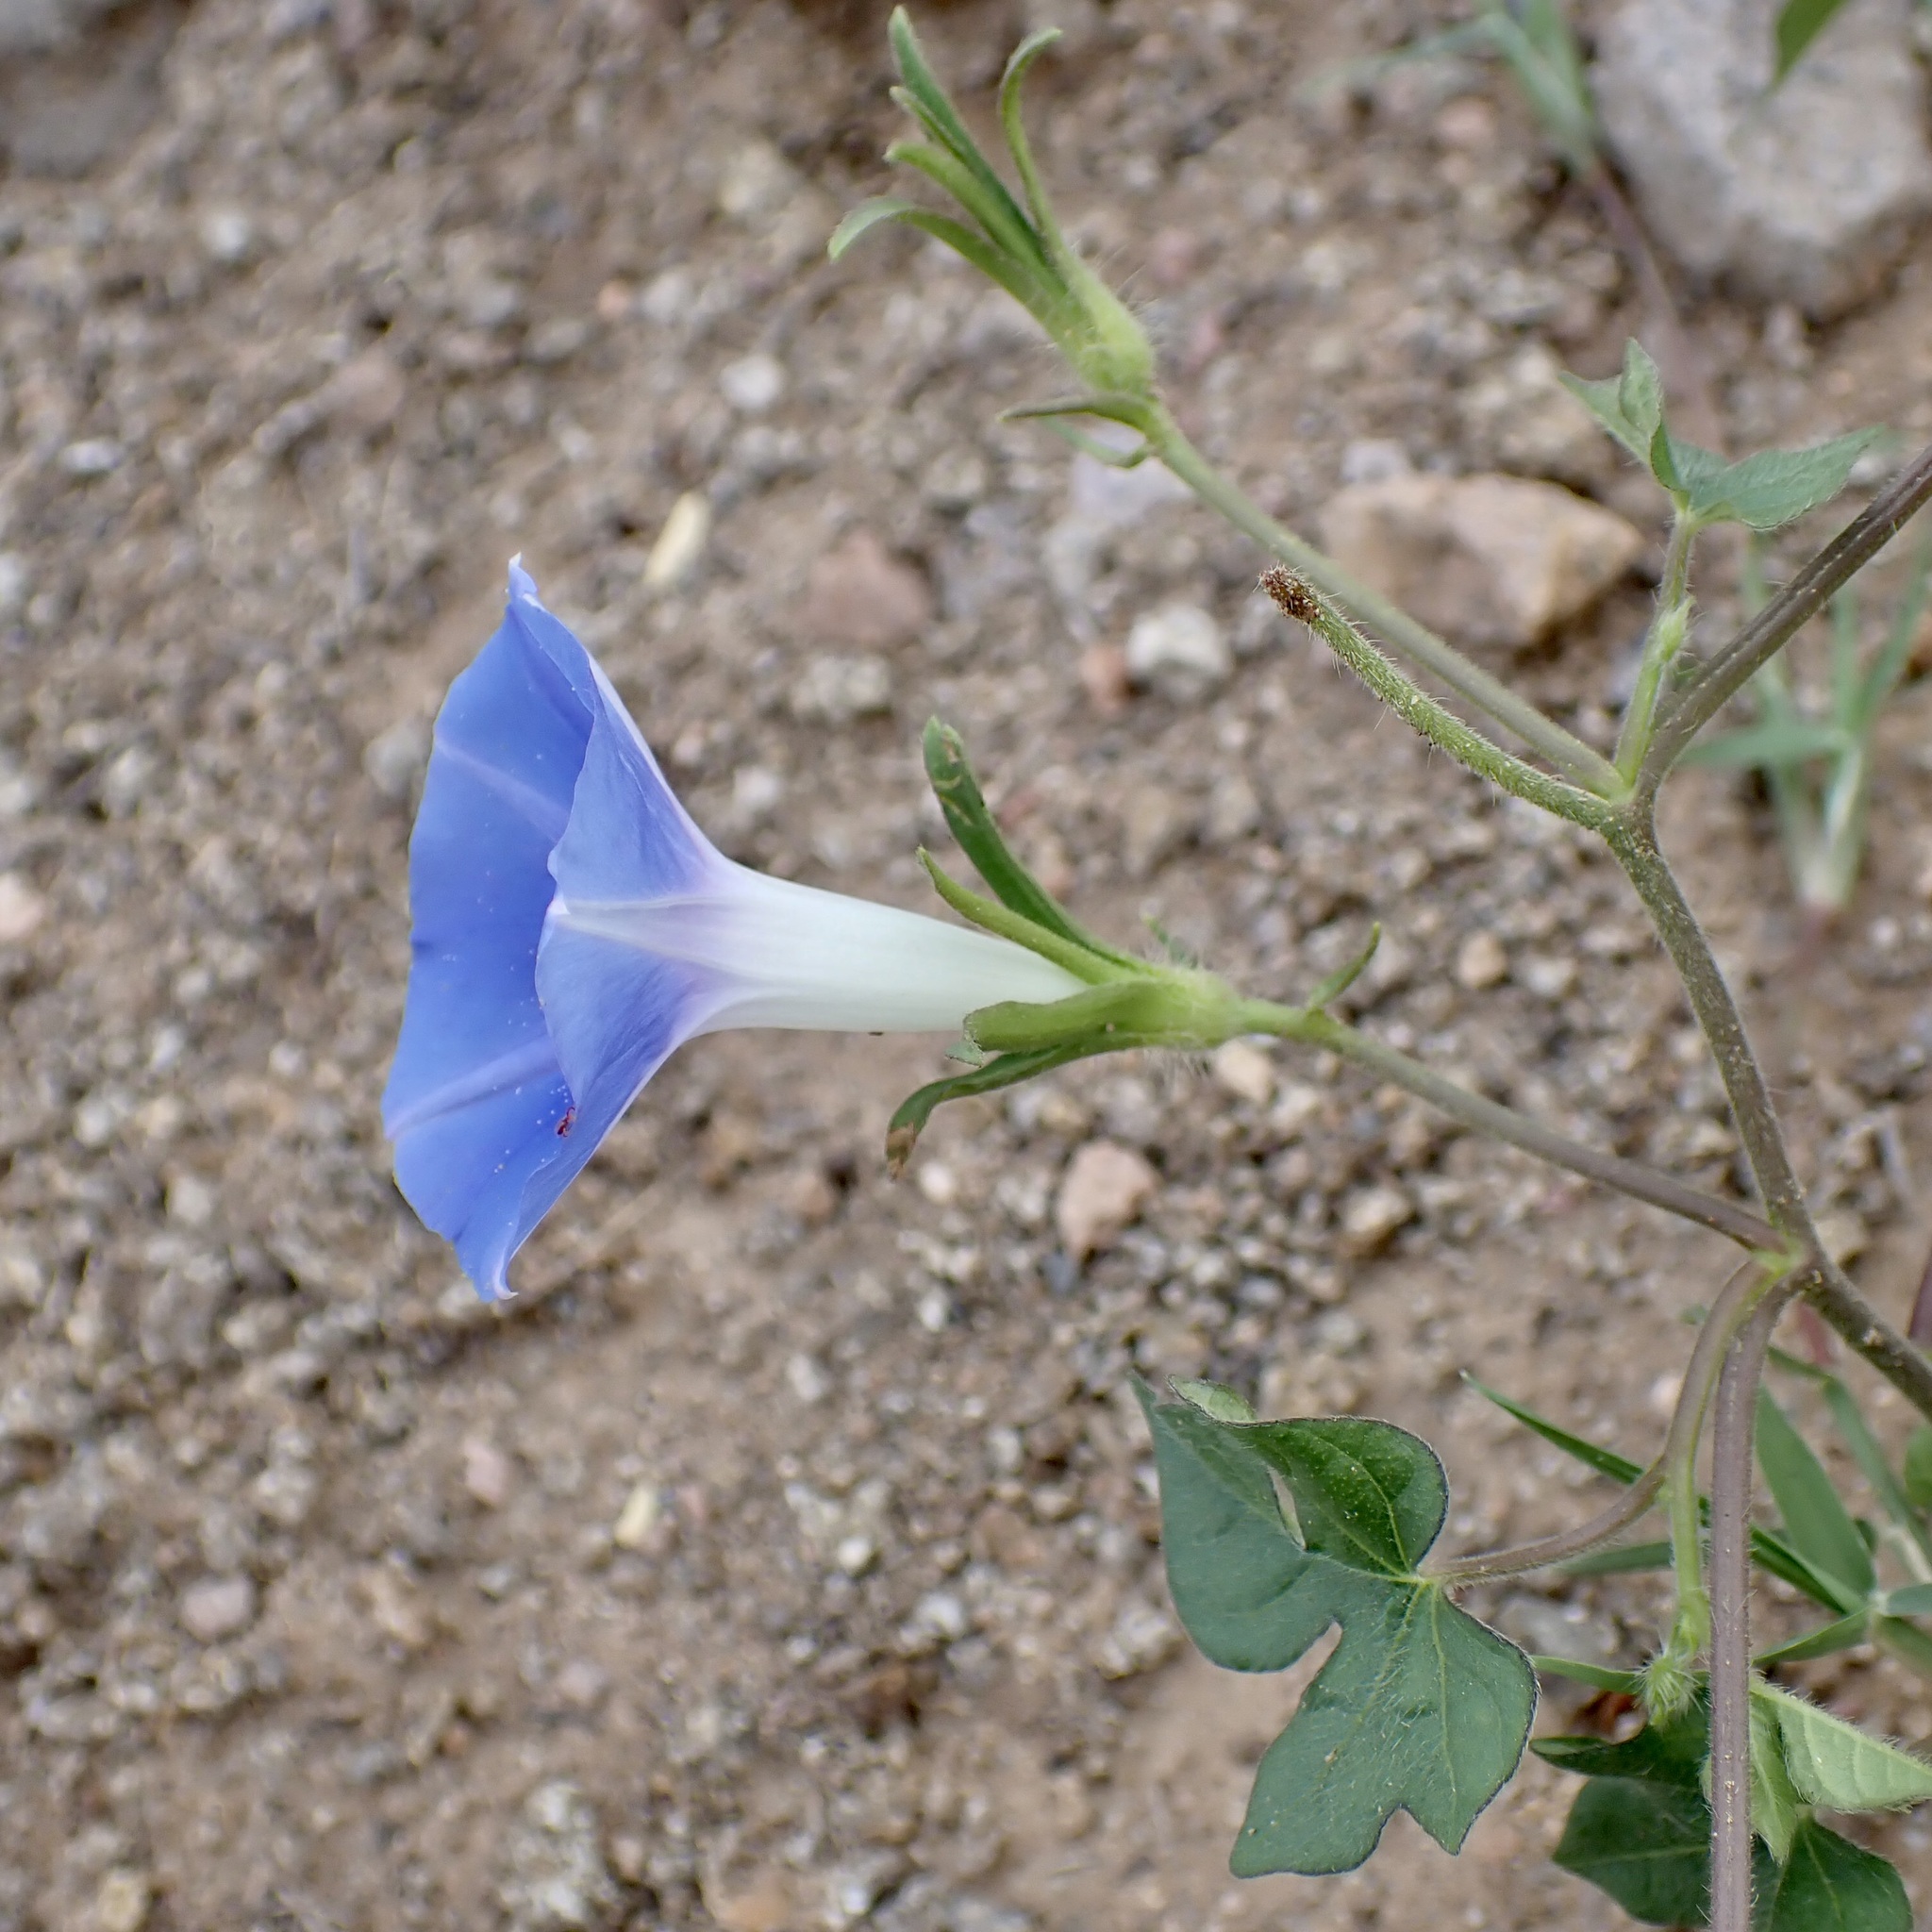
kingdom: Plantae
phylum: Tracheophyta
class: Magnoliopsida
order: Solanales
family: Convolvulaceae
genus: Ipomoea
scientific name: Ipomoea hederacea
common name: Ivy-leaved morning-glory
